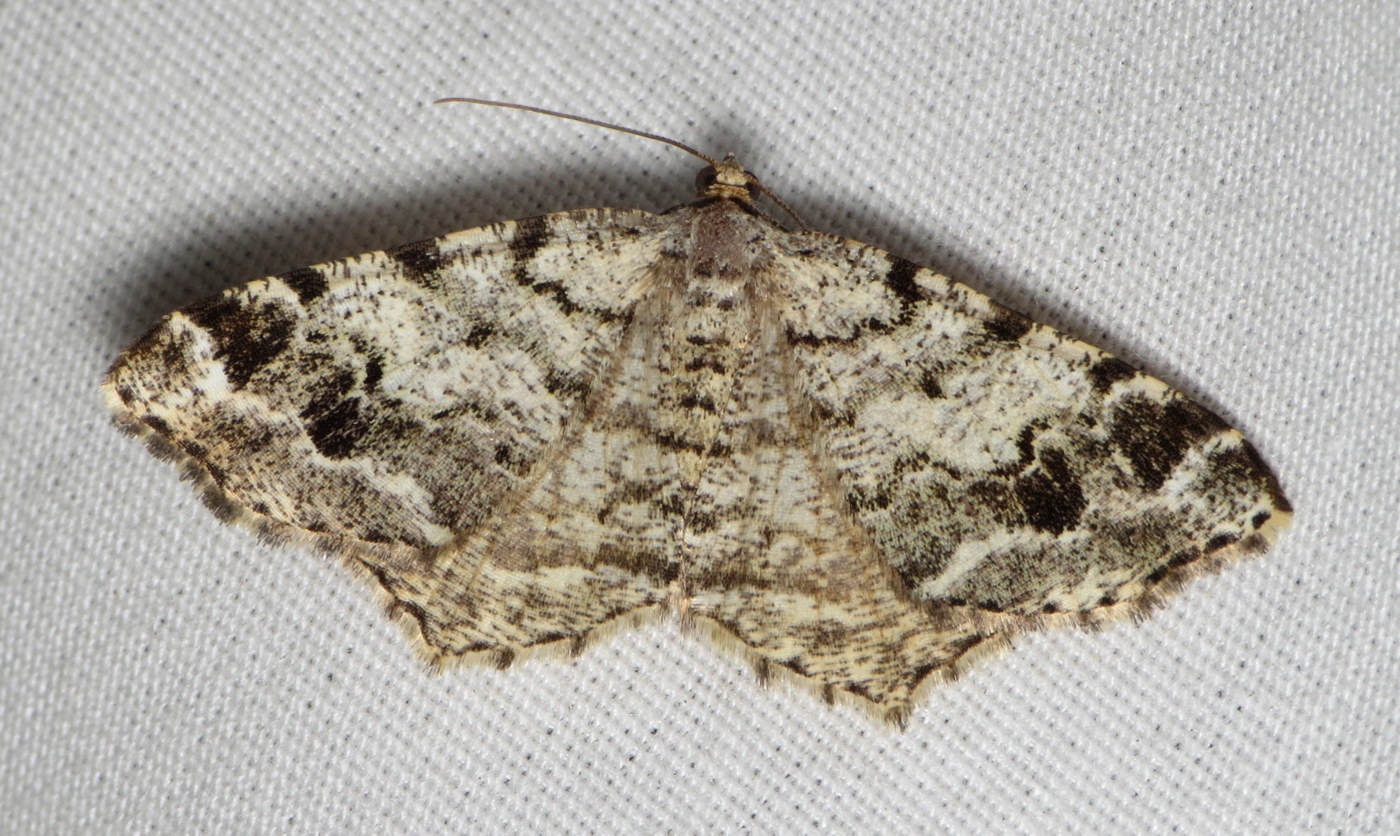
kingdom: Animalia
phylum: Arthropoda
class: Insecta
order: Lepidoptera
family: Geometridae
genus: Macaria
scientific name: Macaria pinistrobata
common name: White pine angle
